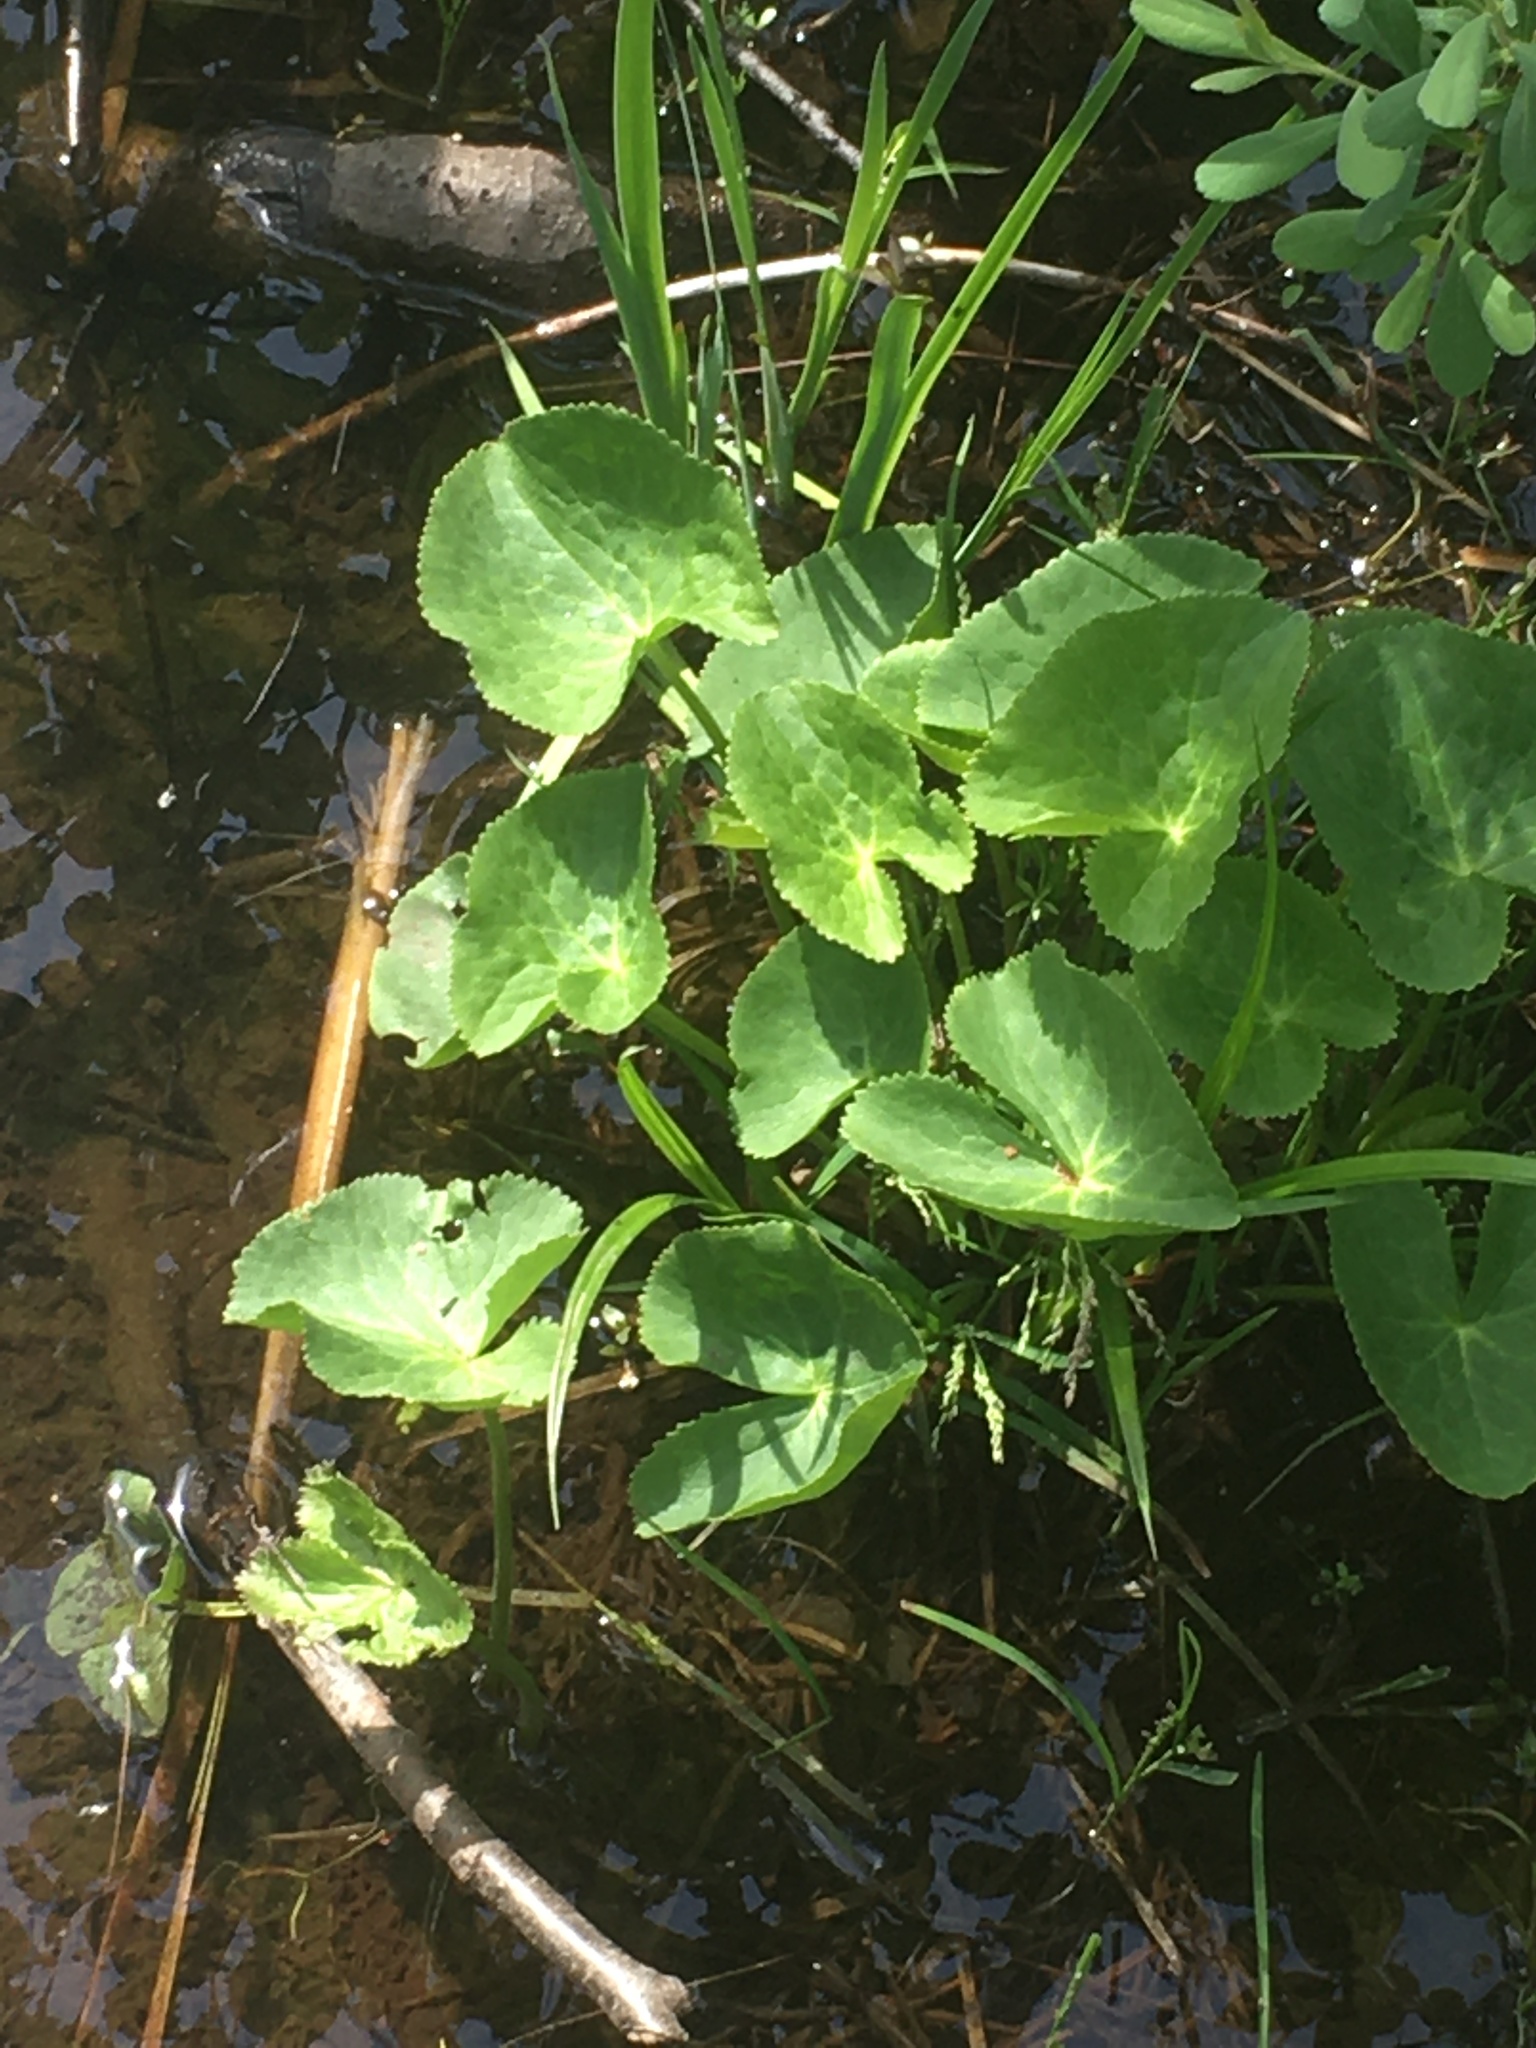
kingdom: Plantae
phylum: Tracheophyta
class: Magnoliopsida
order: Ranunculales
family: Ranunculaceae
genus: Caltha
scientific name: Caltha palustris
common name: Marsh marigold
